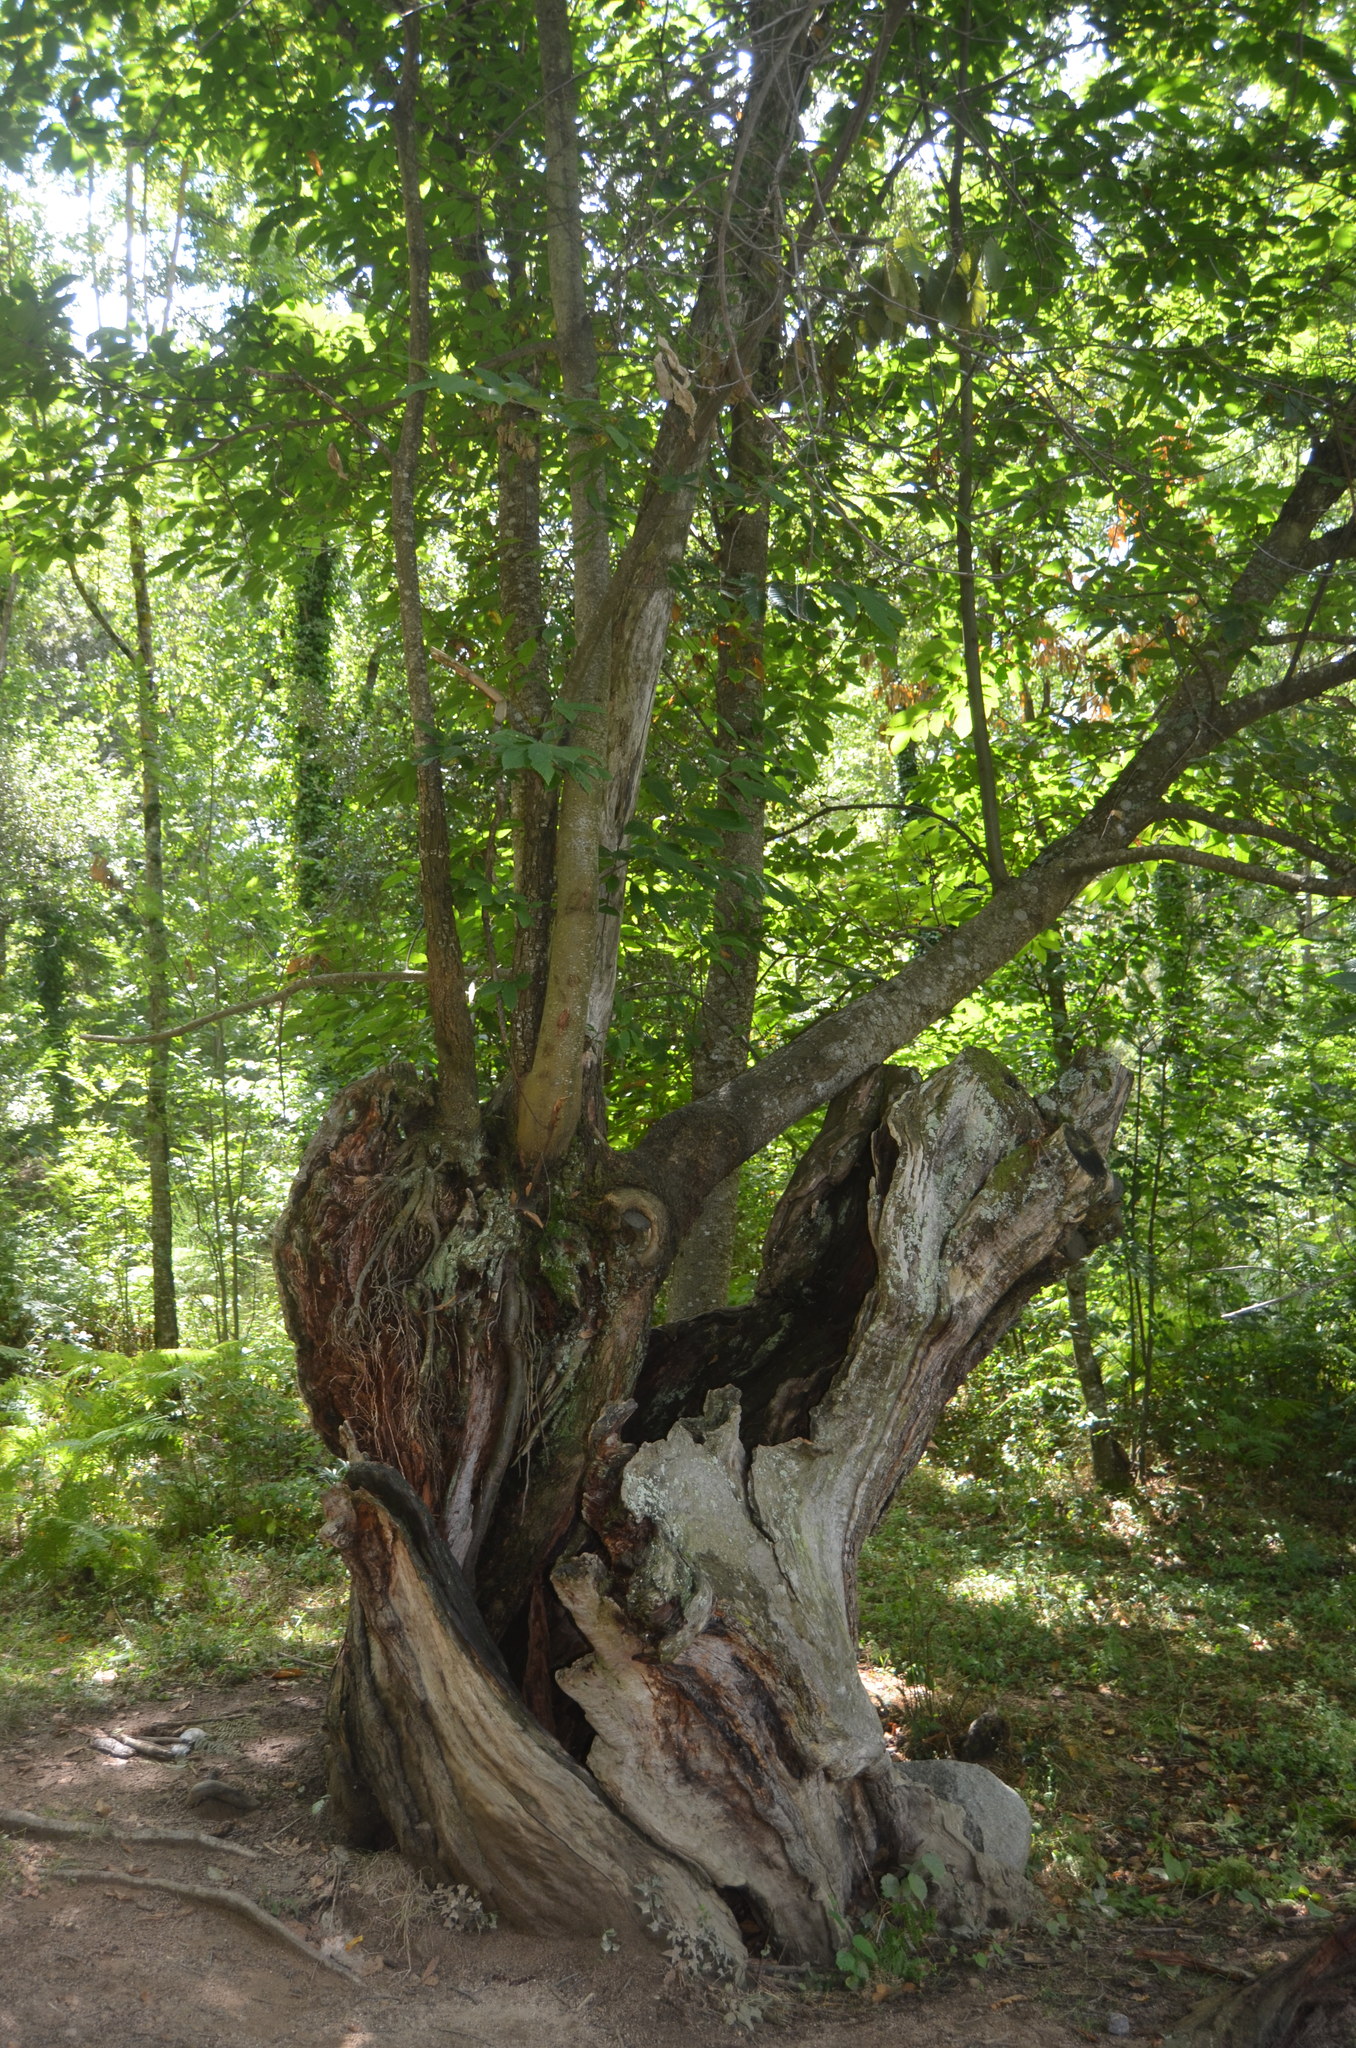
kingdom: Plantae
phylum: Tracheophyta
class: Magnoliopsida
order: Fagales
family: Fagaceae
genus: Castanea
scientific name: Castanea sativa
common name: Sweet chestnut
